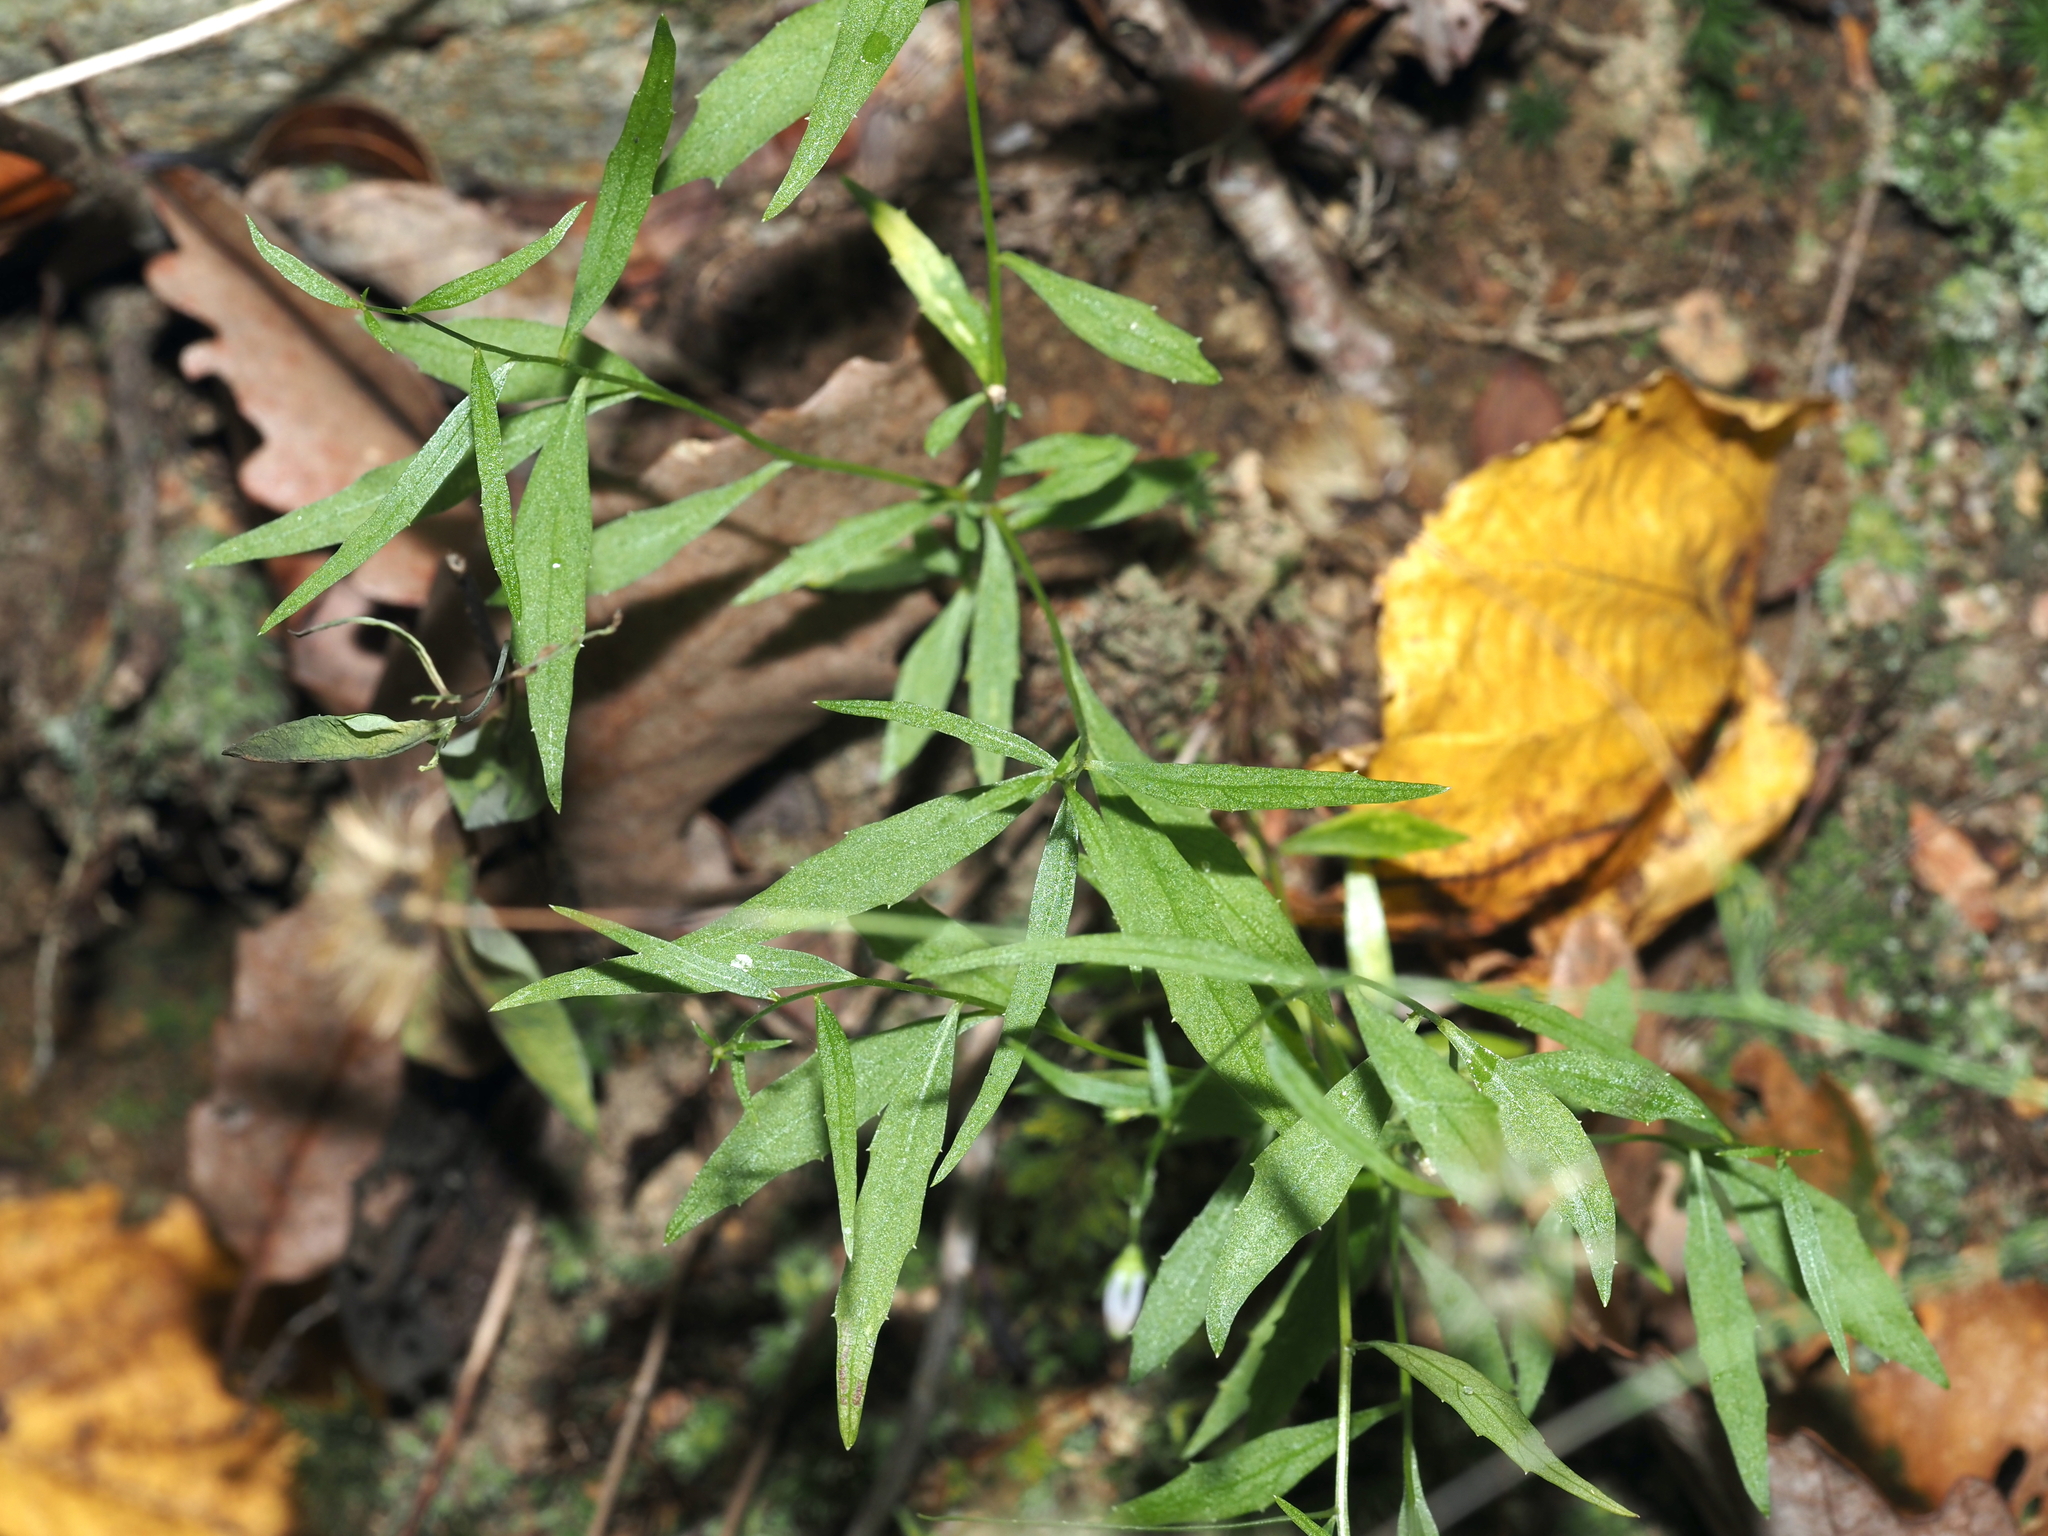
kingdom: Plantae
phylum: Tracheophyta
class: Magnoliopsida
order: Asterales
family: Campanulaceae
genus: Campanula
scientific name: Campanula divaricata
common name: Appalachian bellflower
